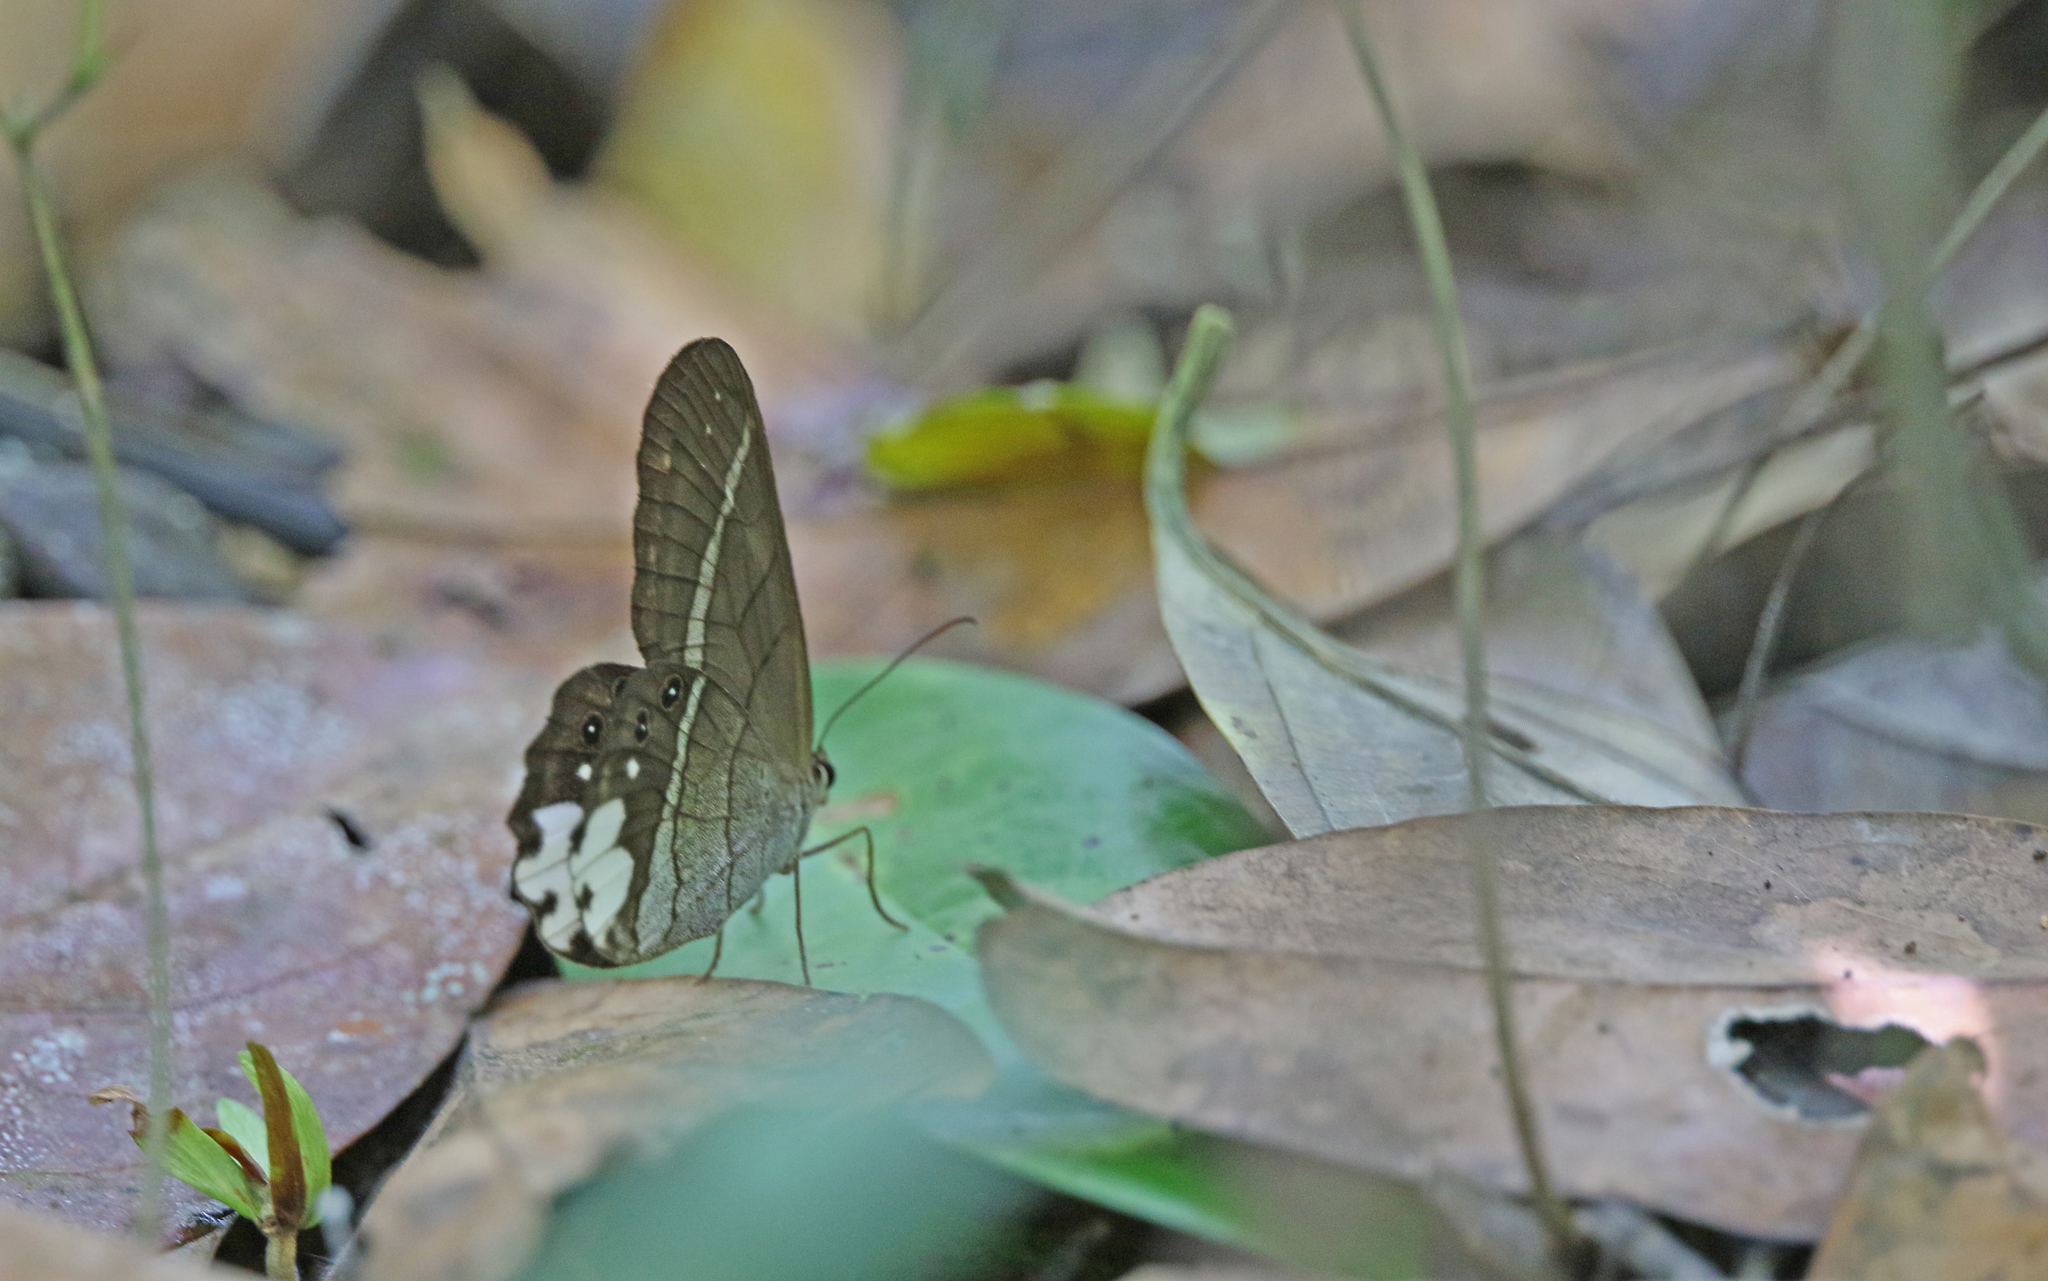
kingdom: Animalia
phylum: Arthropoda
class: Insecta
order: Lepidoptera
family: Nymphalidae
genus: Pierella
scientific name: Pierella astyoche
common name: Astyoche satyr
